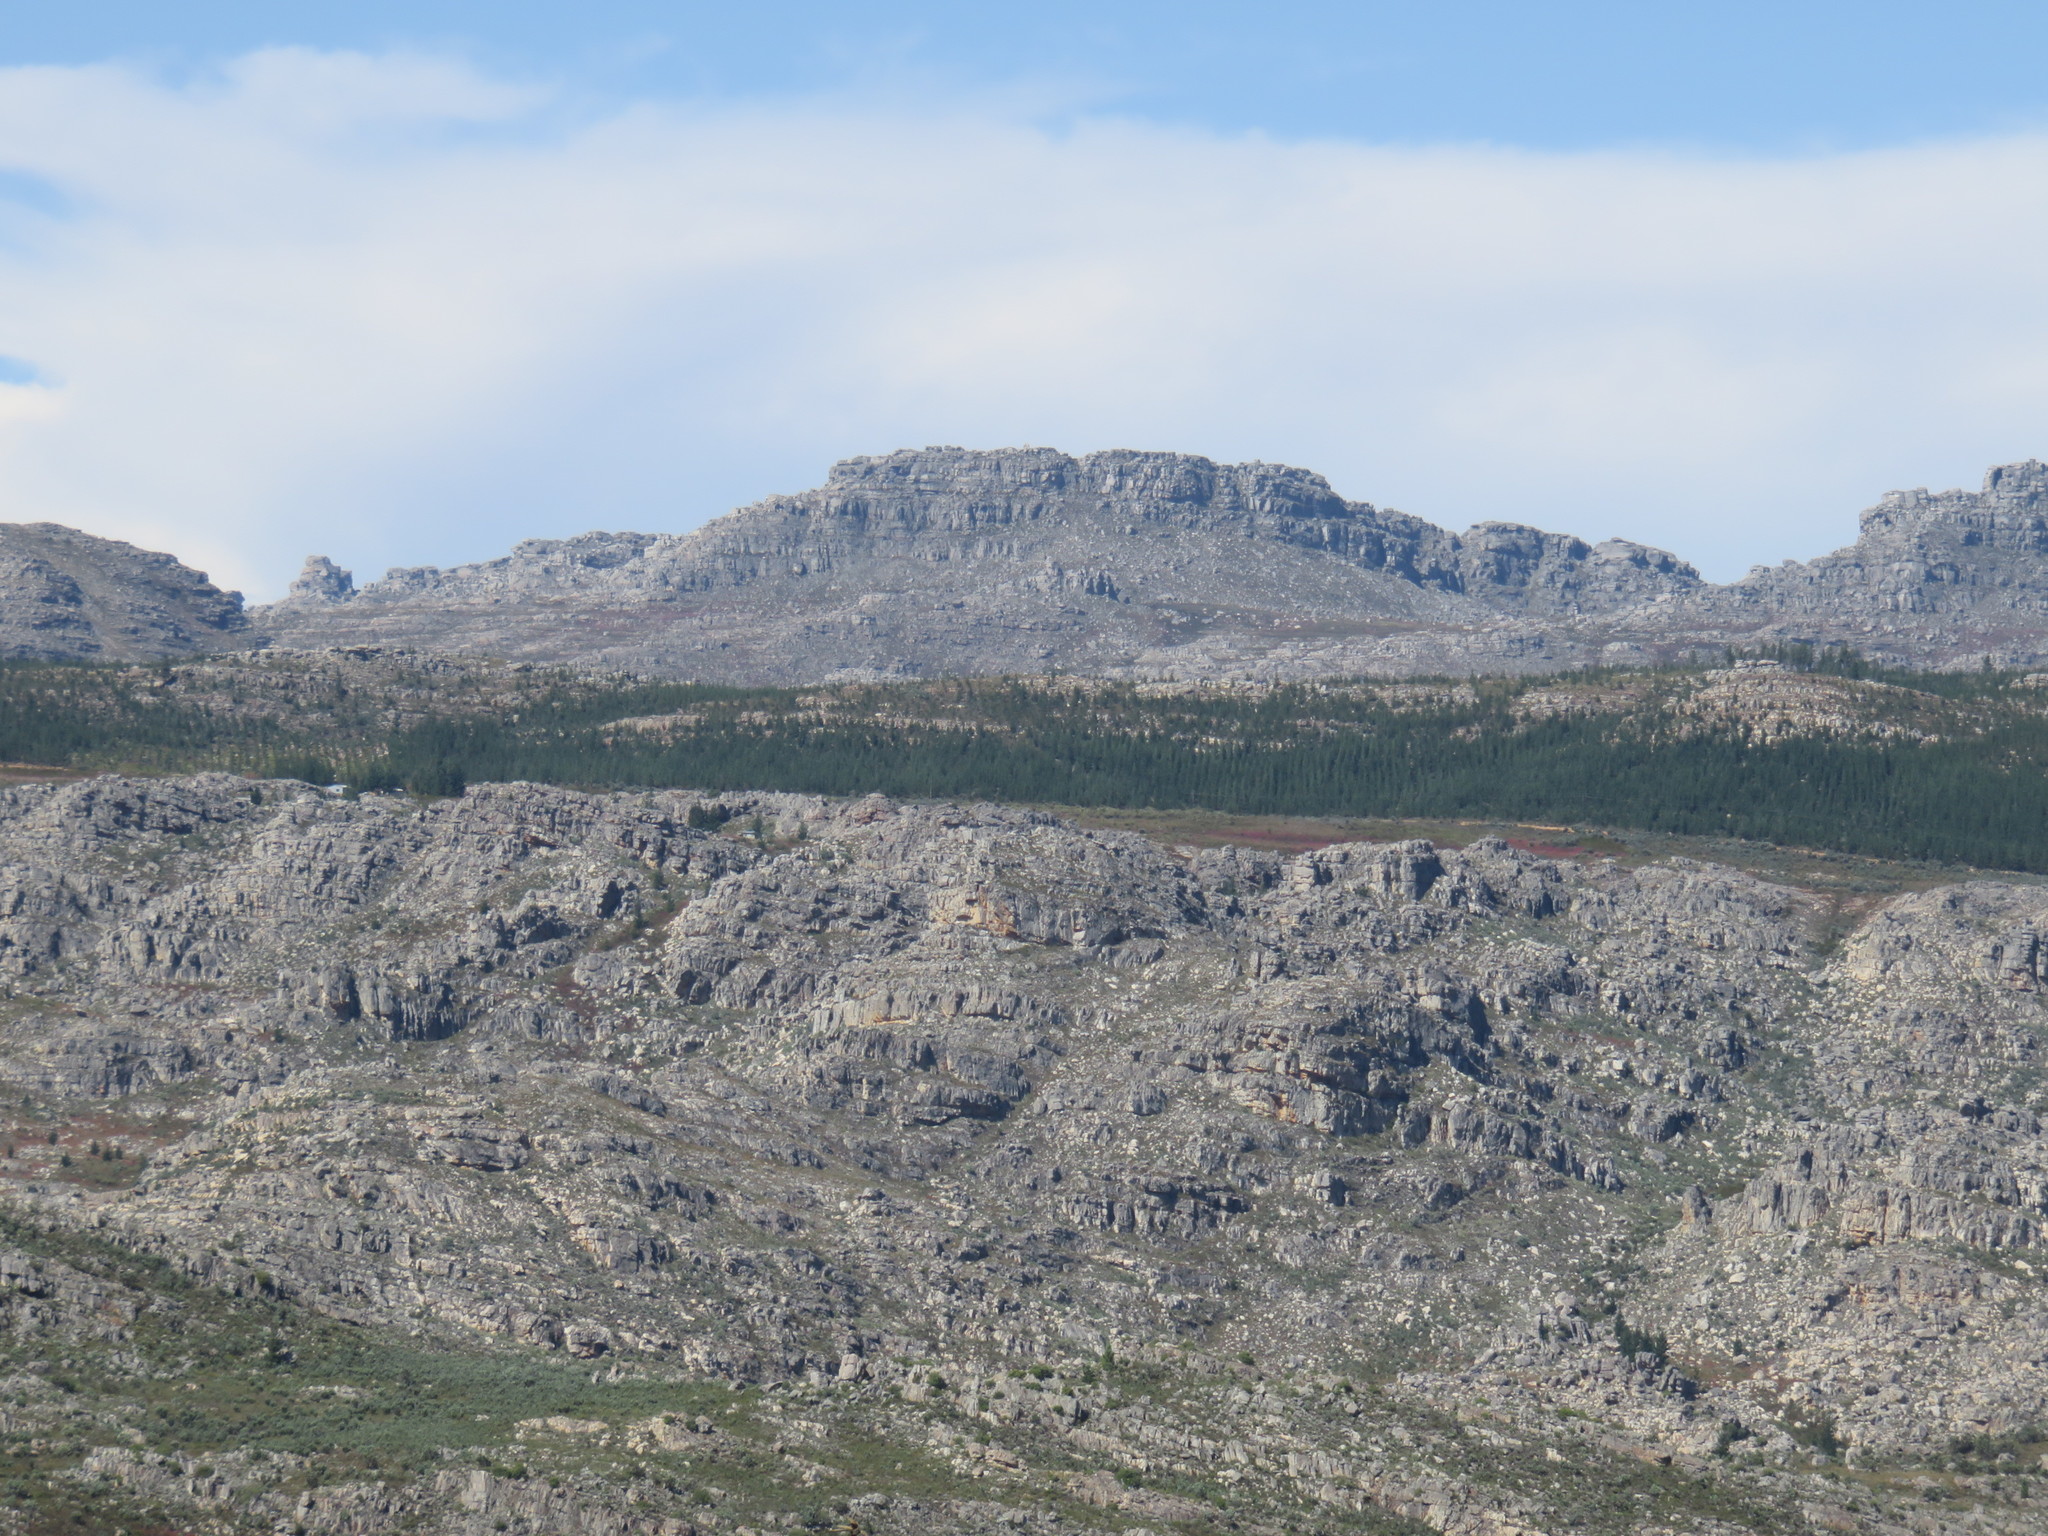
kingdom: Plantae
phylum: Tracheophyta
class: Pinopsida
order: Pinales
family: Pinaceae
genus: Pinus
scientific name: Pinus radiata
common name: Monterey pine
